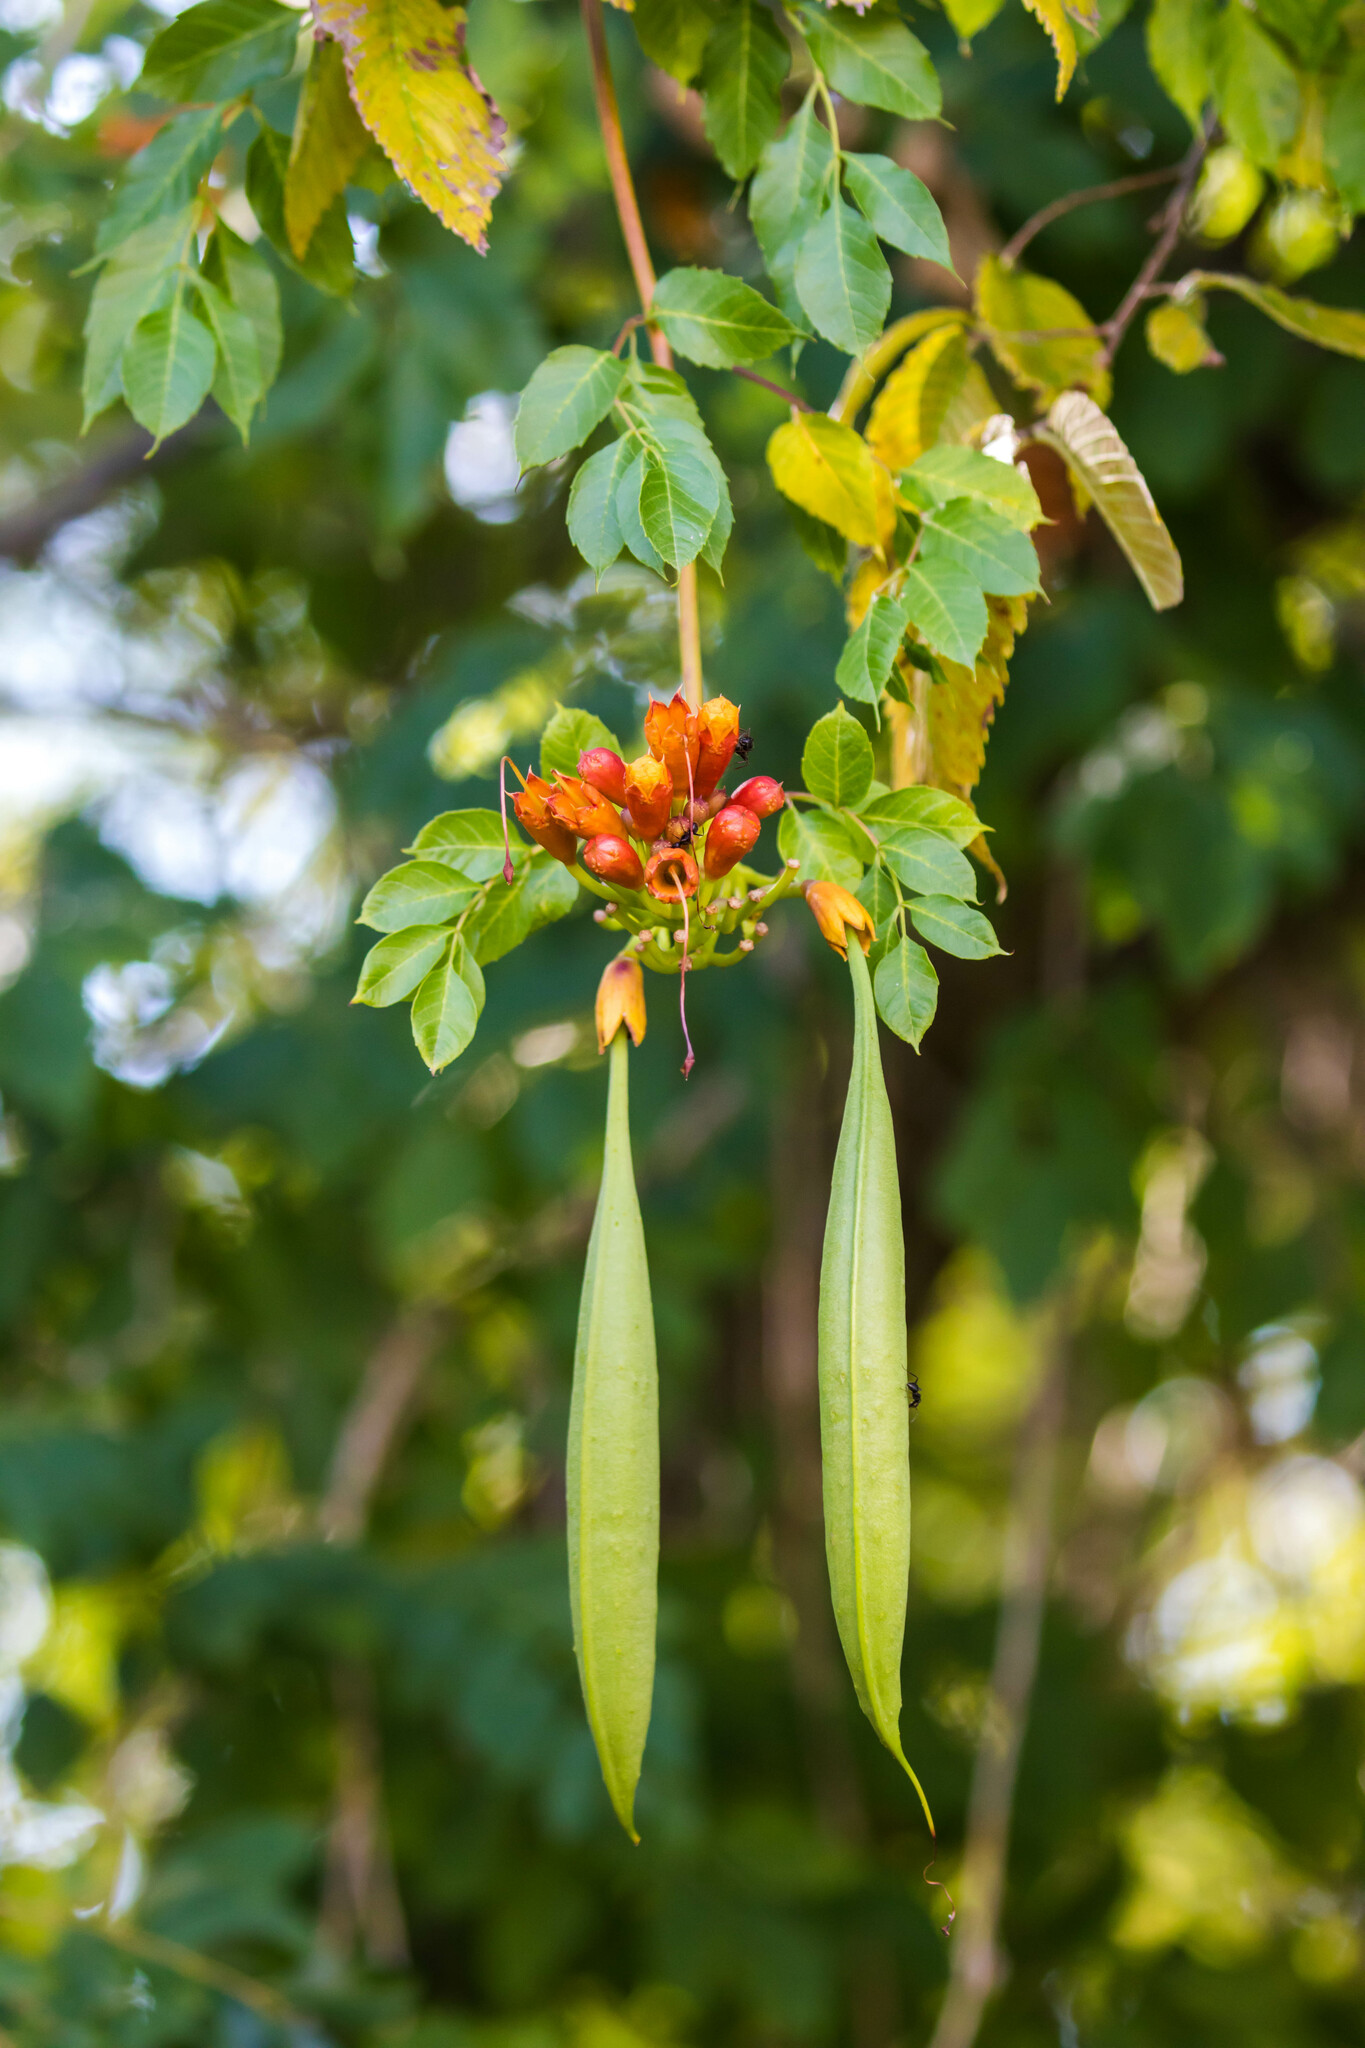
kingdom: Plantae
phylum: Tracheophyta
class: Magnoliopsida
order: Lamiales
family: Bignoniaceae
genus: Campsis
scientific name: Campsis radicans
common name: Trumpet-creeper
